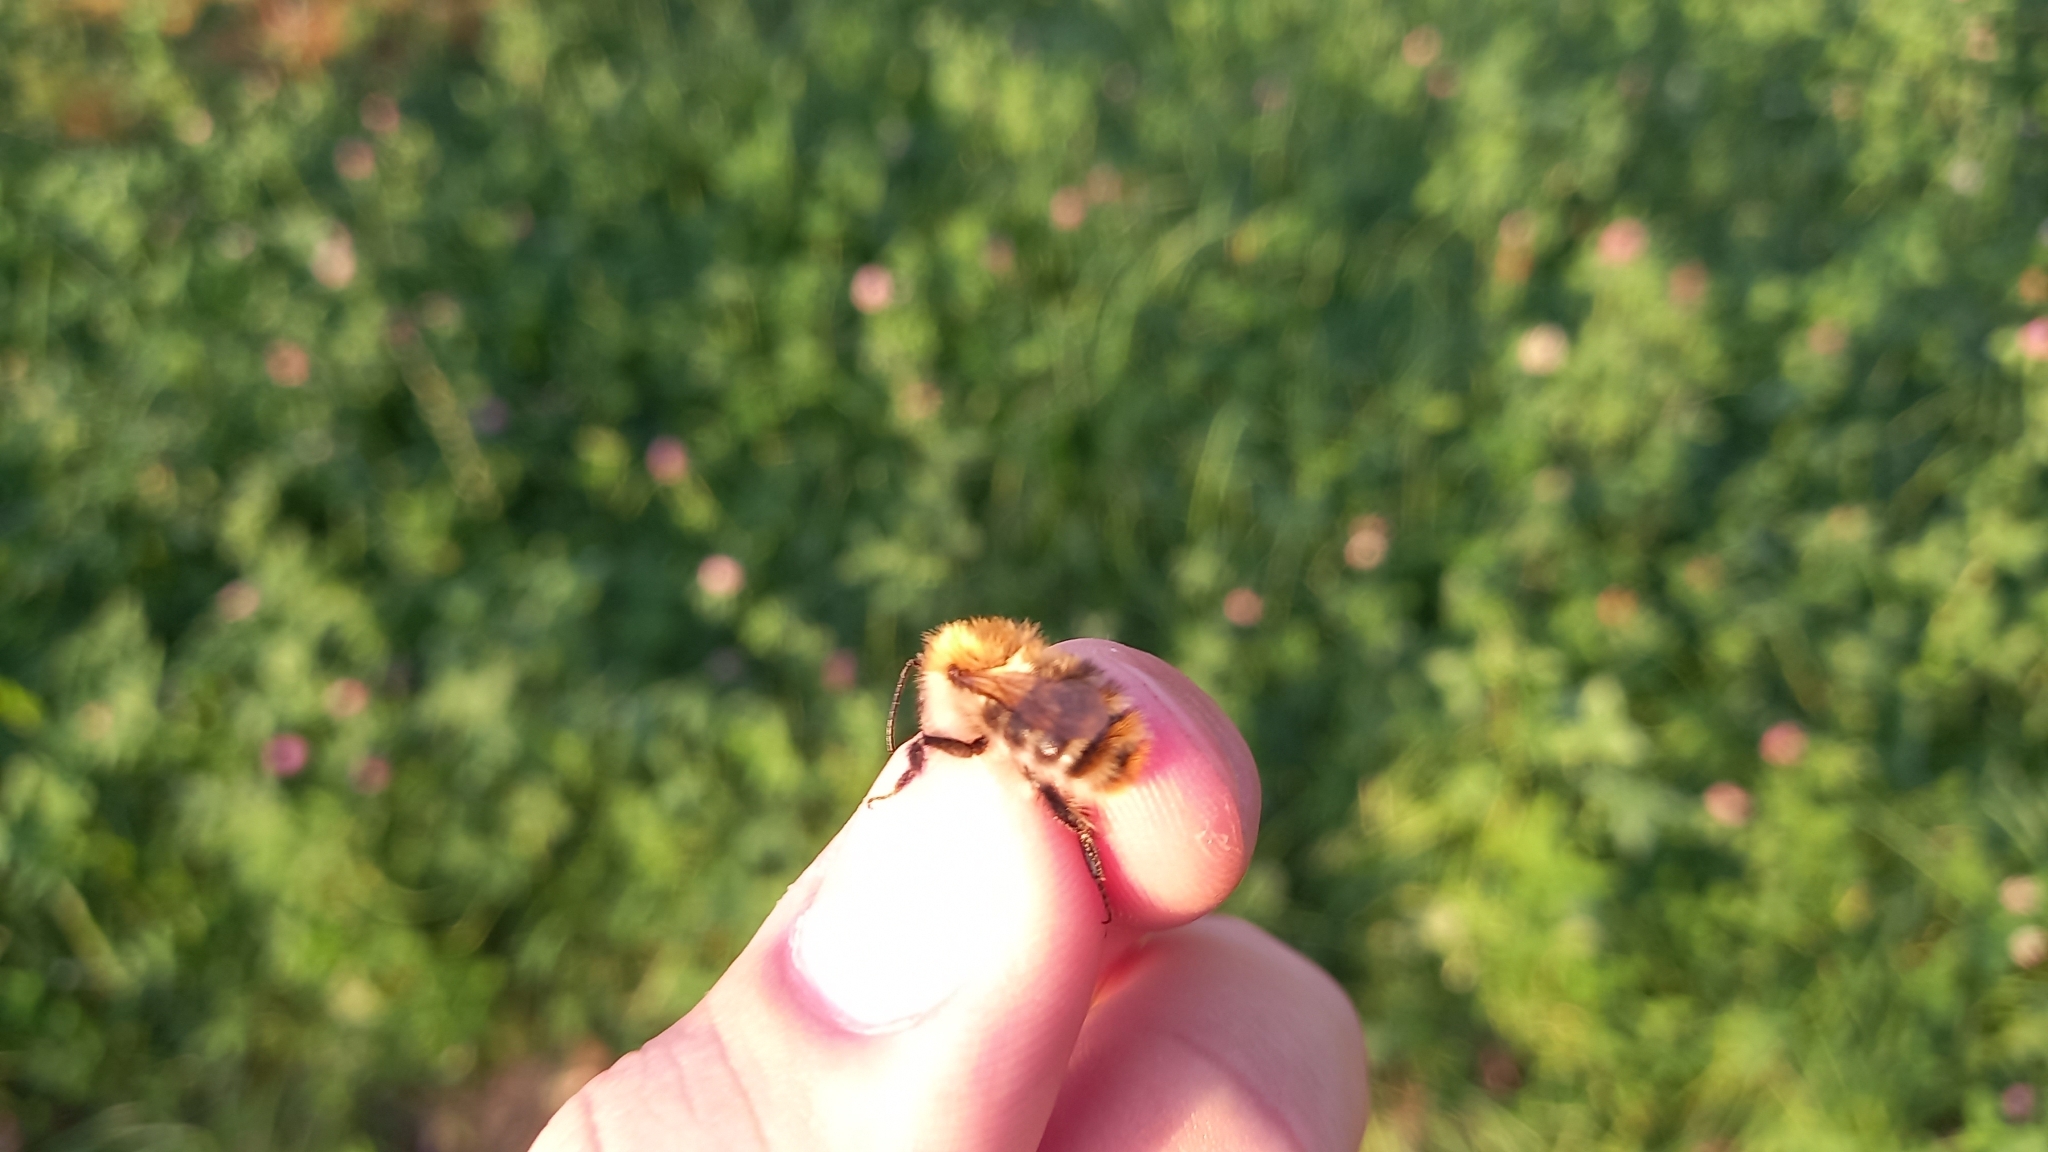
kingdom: Animalia
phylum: Arthropoda
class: Insecta
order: Hymenoptera
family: Apidae
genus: Bombus
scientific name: Bombus pascuorum
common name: Common carder bee
